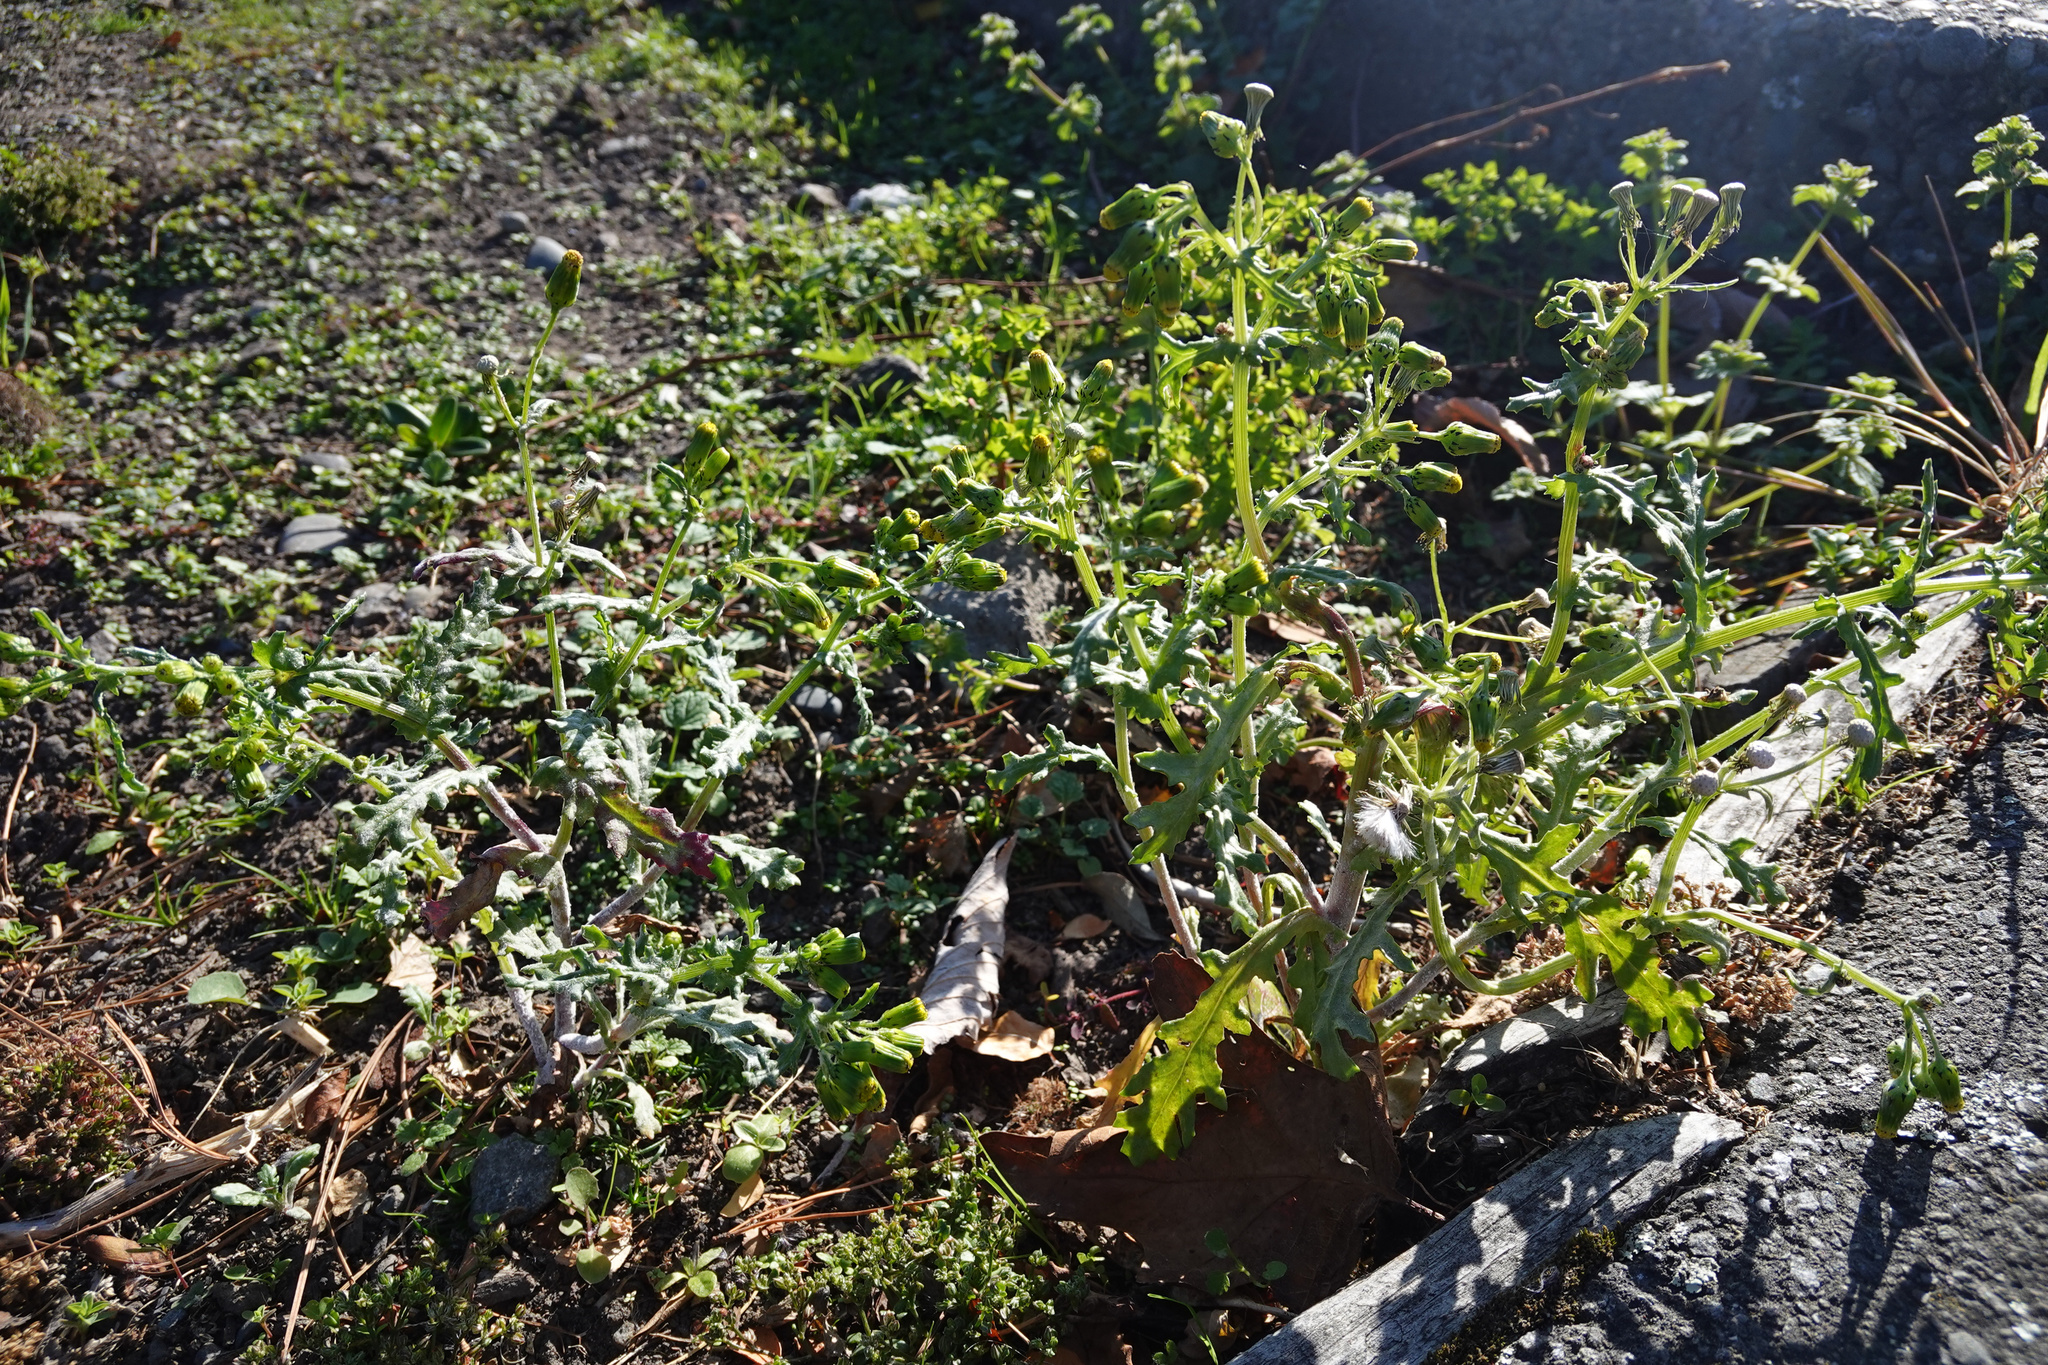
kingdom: Plantae
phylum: Tracheophyta
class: Magnoliopsida
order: Asterales
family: Asteraceae
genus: Senecio
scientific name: Senecio vulgaris
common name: Old-man-in-the-spring
